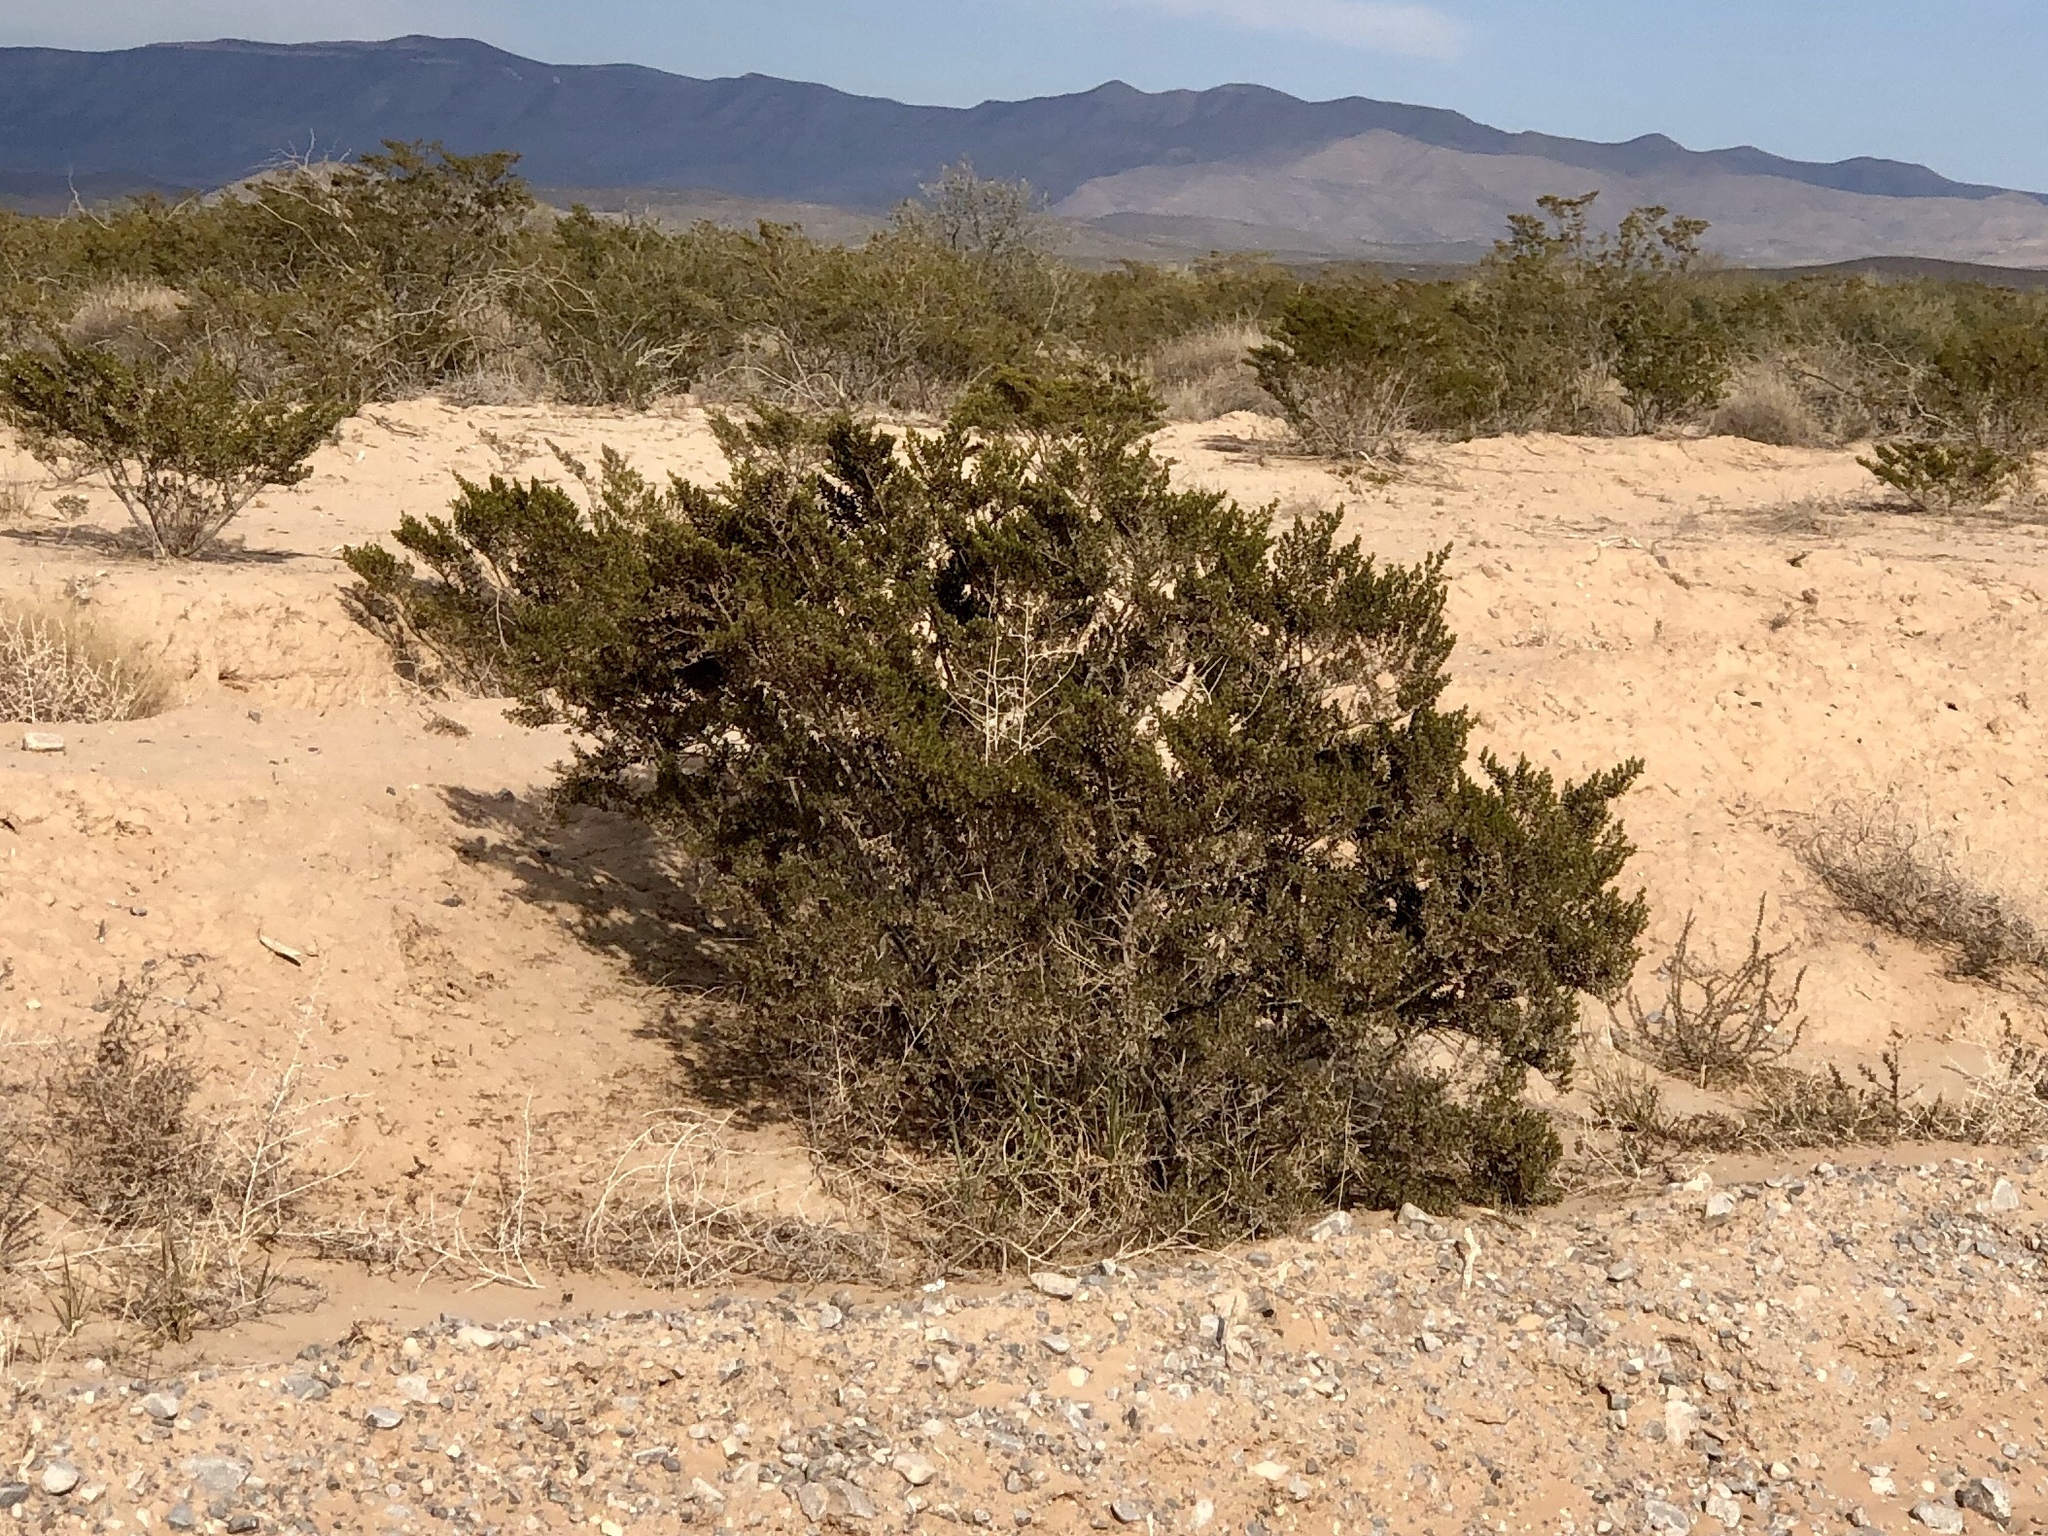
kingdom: Plantae
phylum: Tracheophyta
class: Magnoliopsida
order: Zygophyllales
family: Zygophyllaceae
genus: Larrea
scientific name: Larrea tridentata
